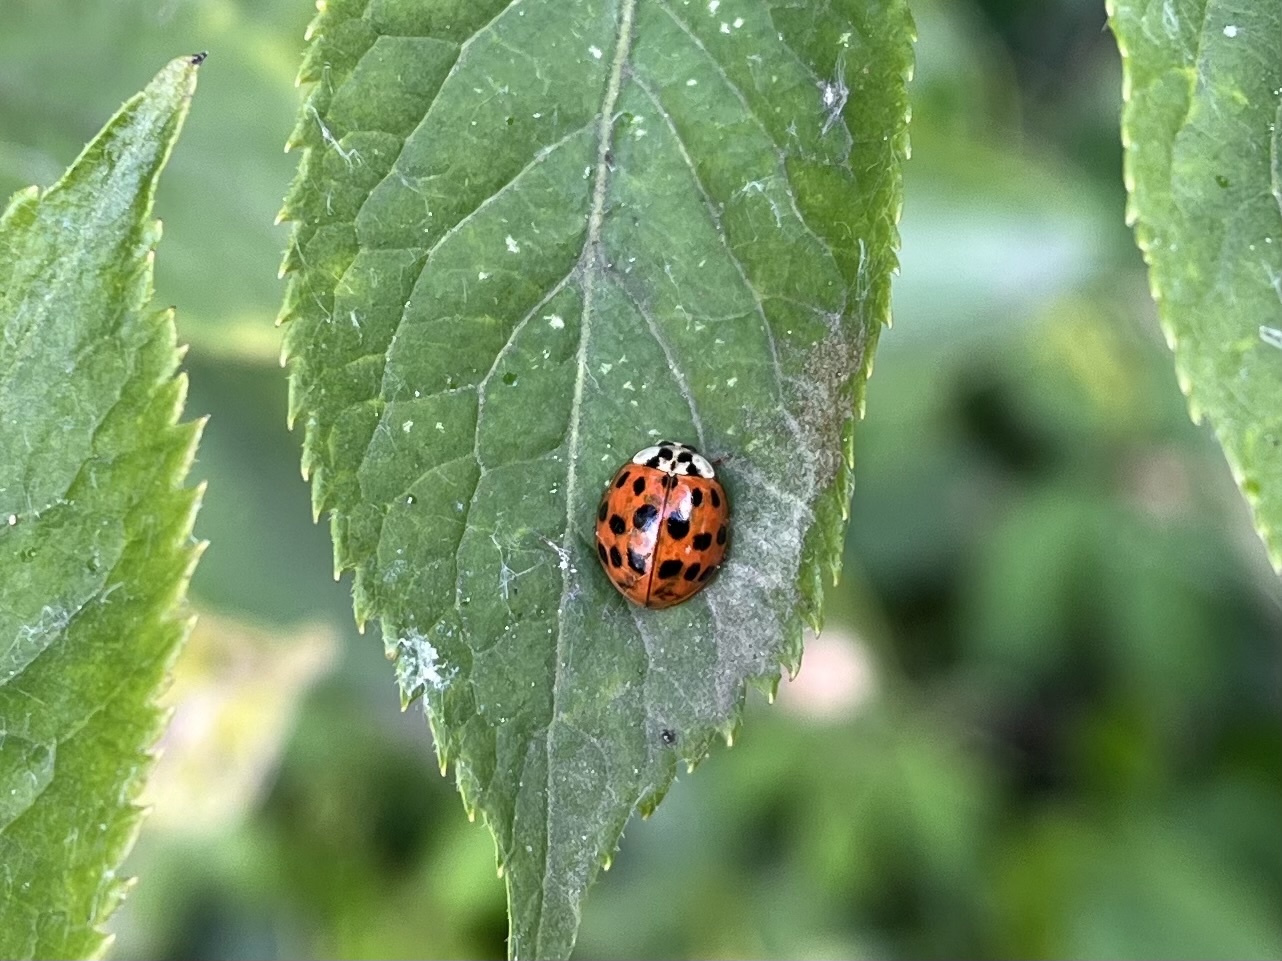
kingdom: Animalia
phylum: Arthropoda
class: Insecta
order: Coleoptera
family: Coccinellidae
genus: Harmonia
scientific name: Harmonia axyridis
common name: Harlequin ladybird
